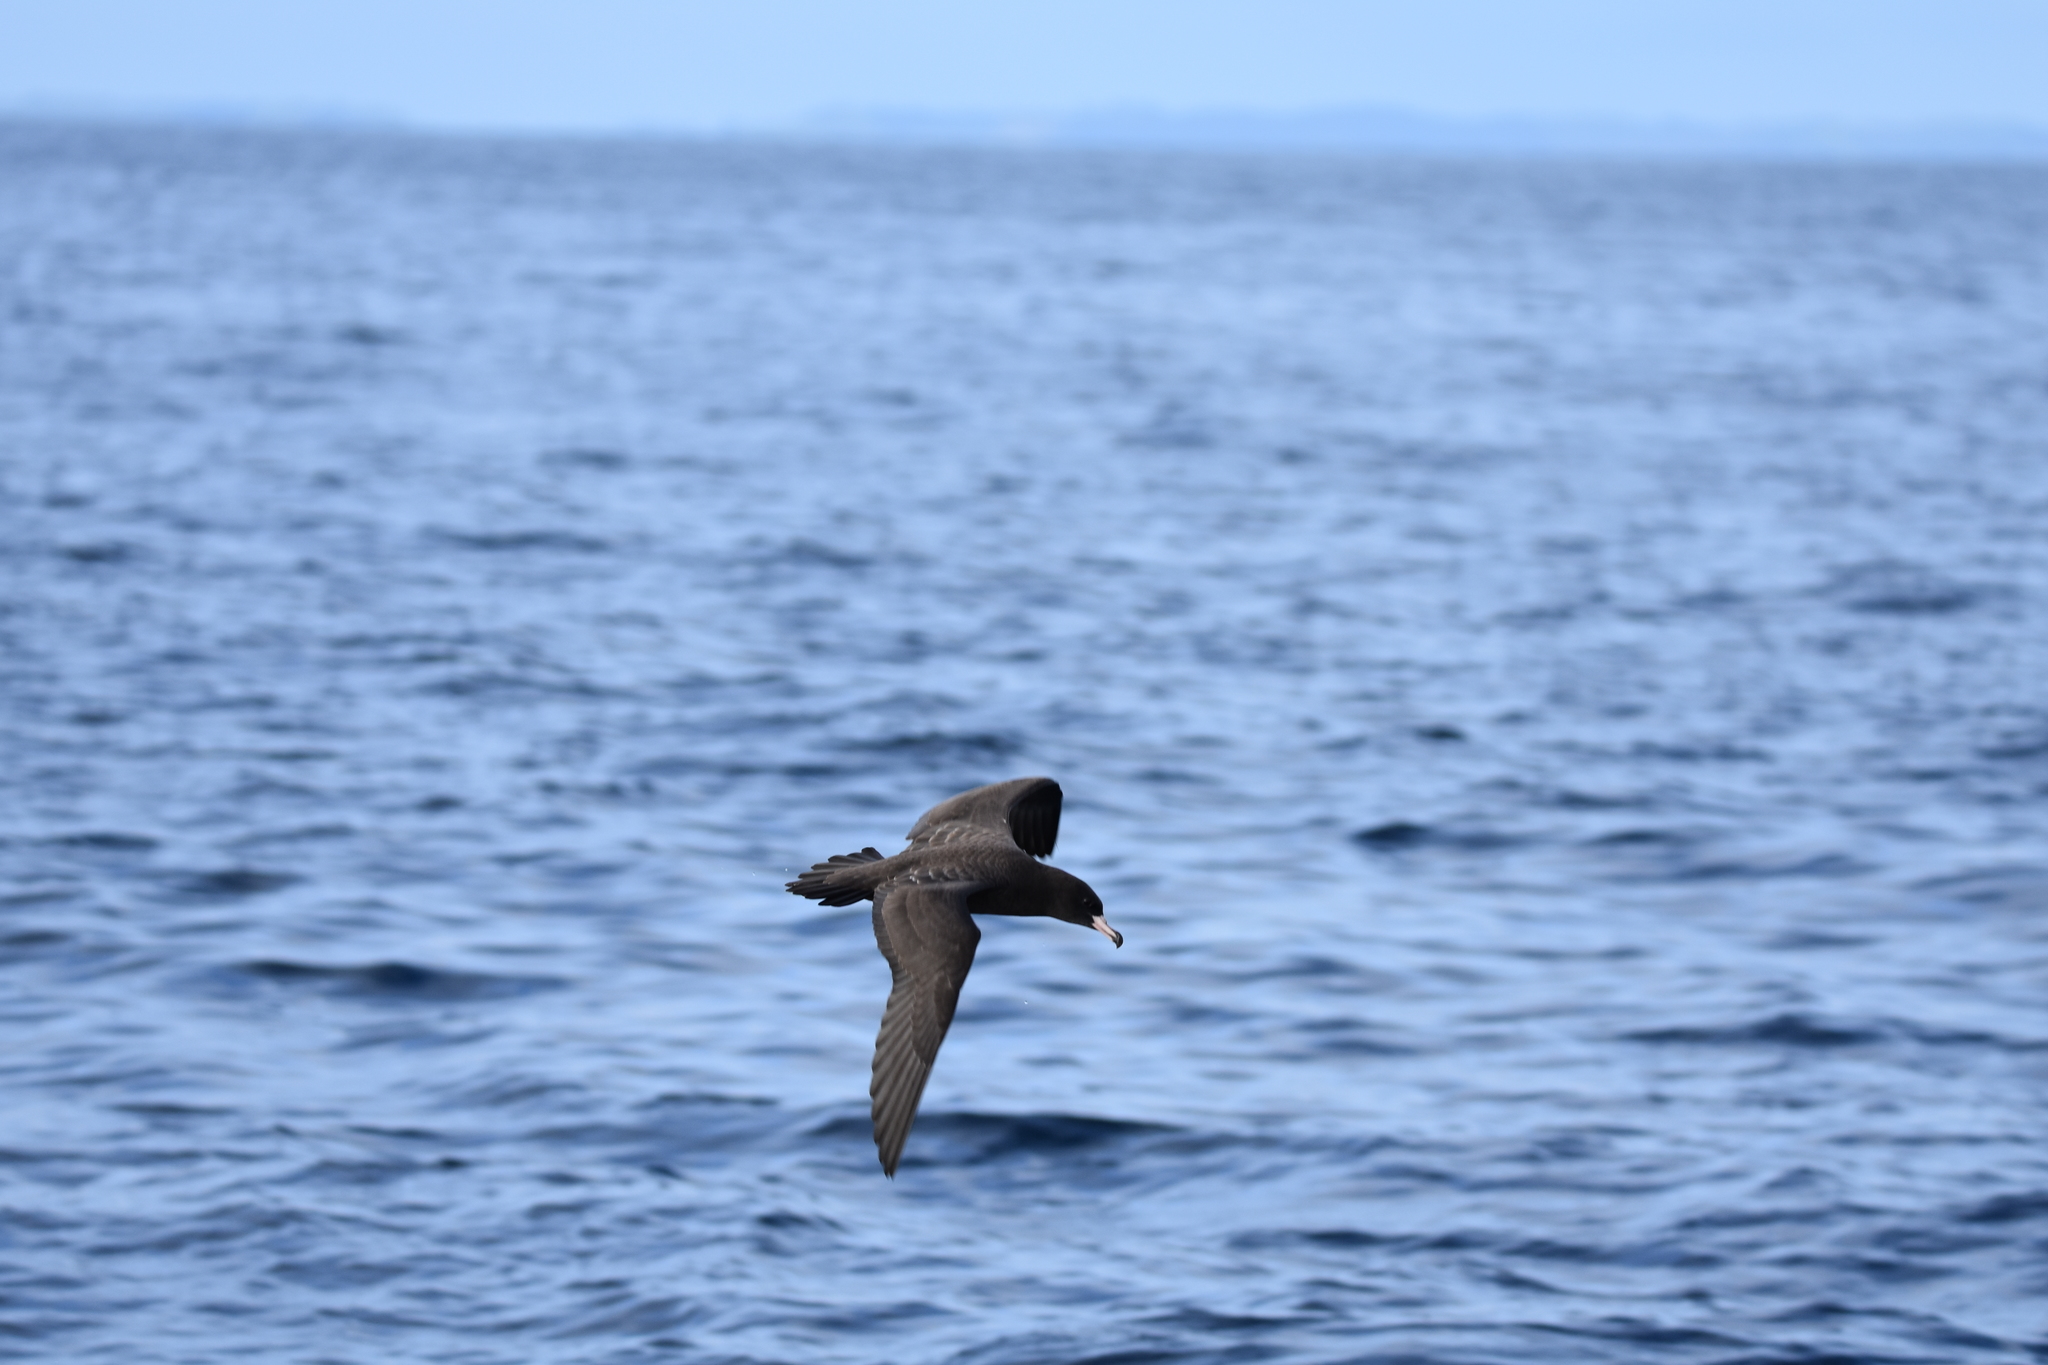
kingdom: Animalia
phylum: Chordata
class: Aves
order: Procellariiformes
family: Procellariidae
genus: Puffinus
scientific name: Puffinus carneipes
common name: Flesh-footed shearwater
